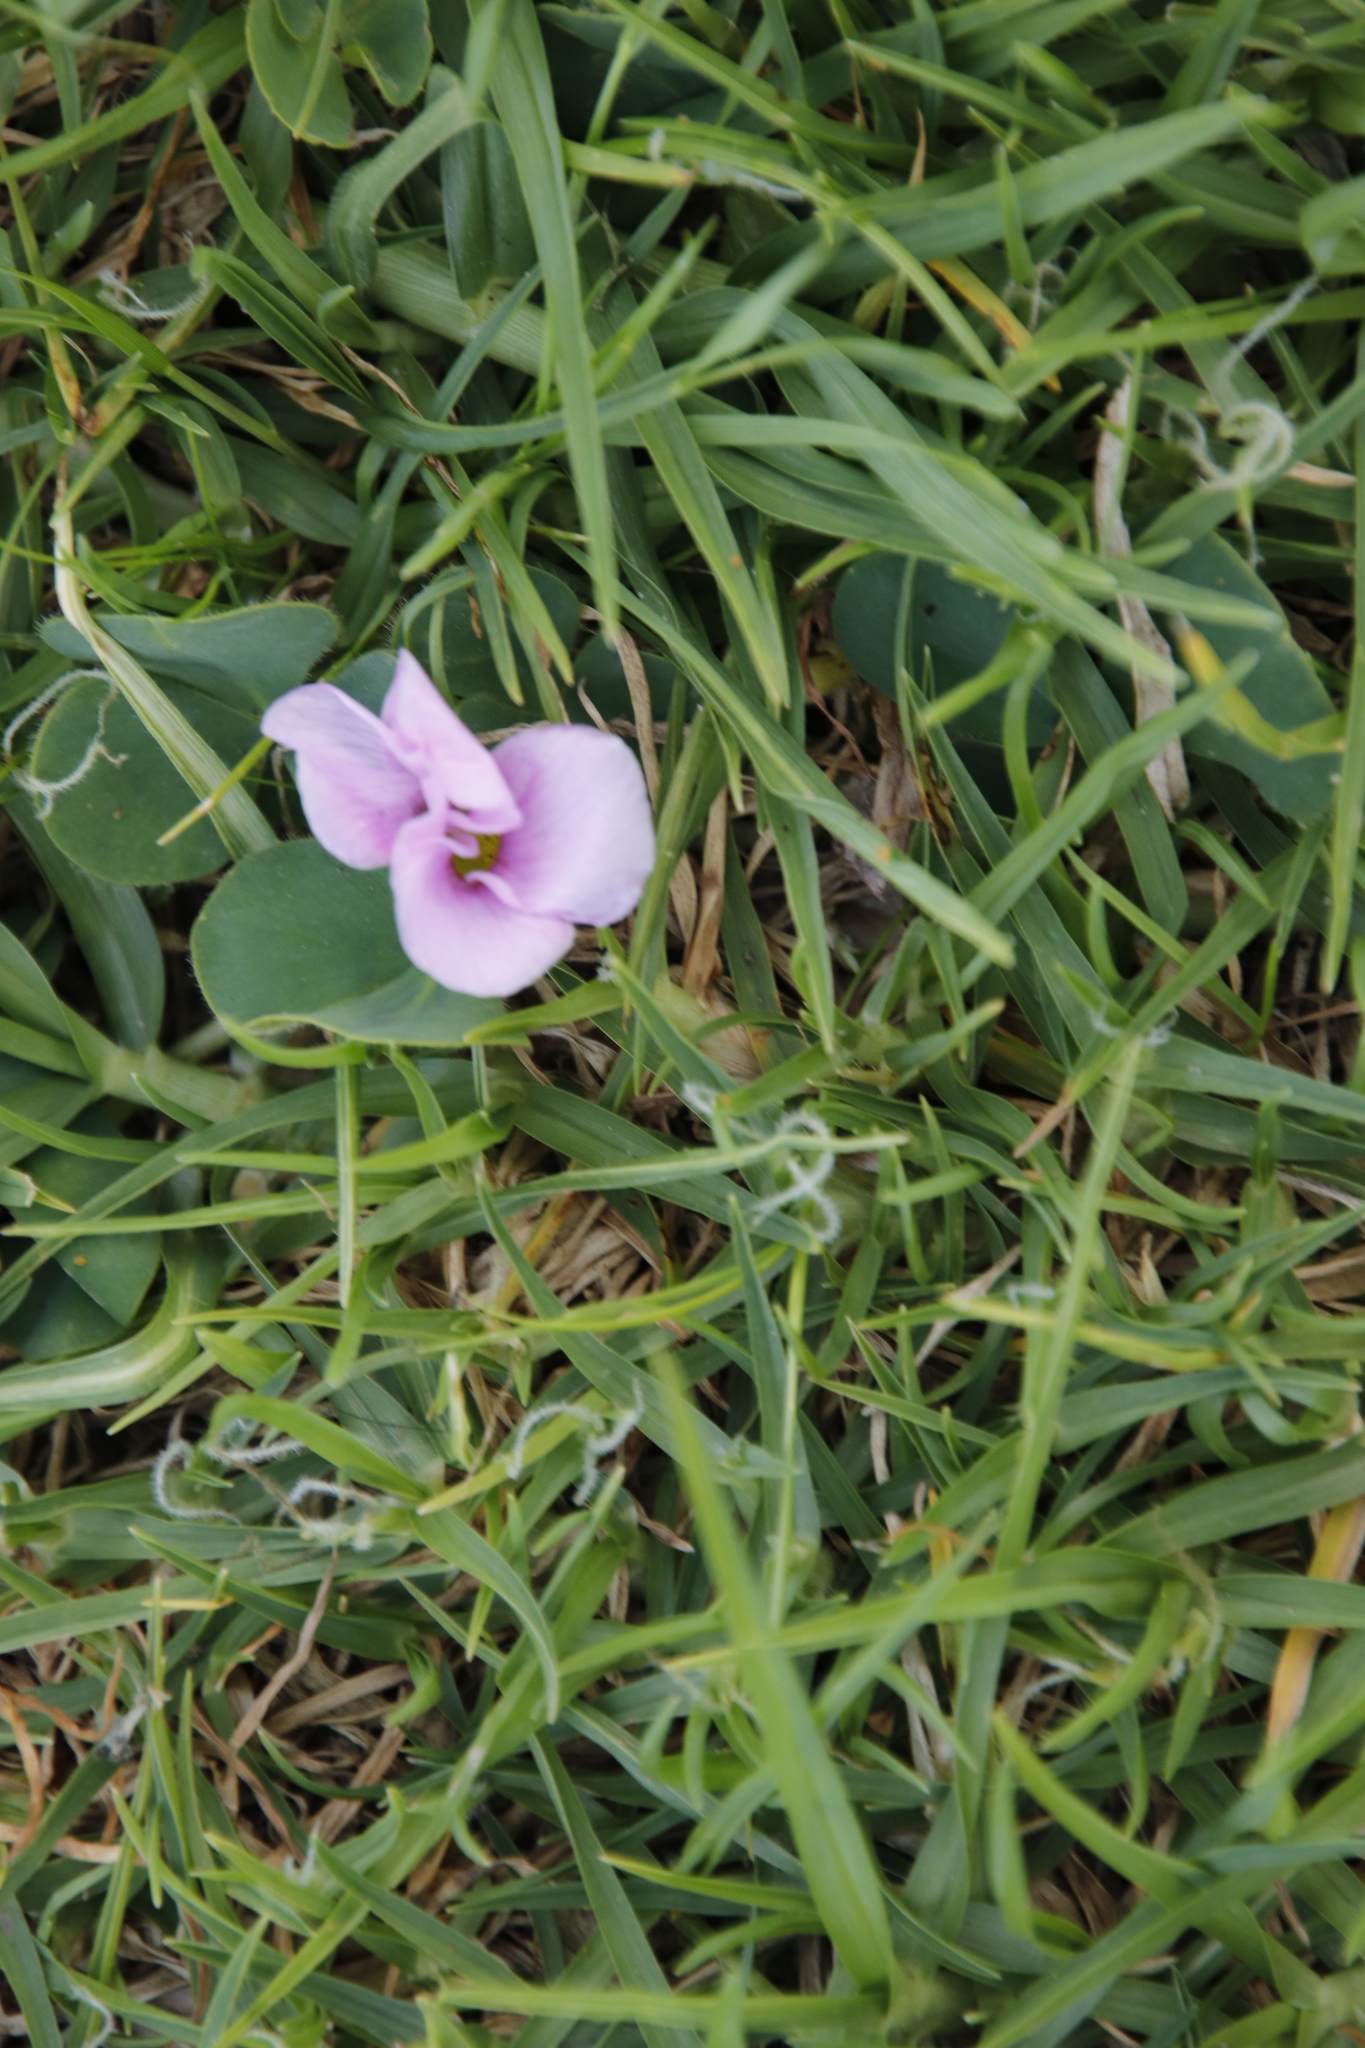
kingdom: Plantae
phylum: Tracheophyta
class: Magnoliopsida
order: Oxalidales
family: Oxalidaceae
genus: Oxalis
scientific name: Oxalis purpurea
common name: Purple woodsorrel
